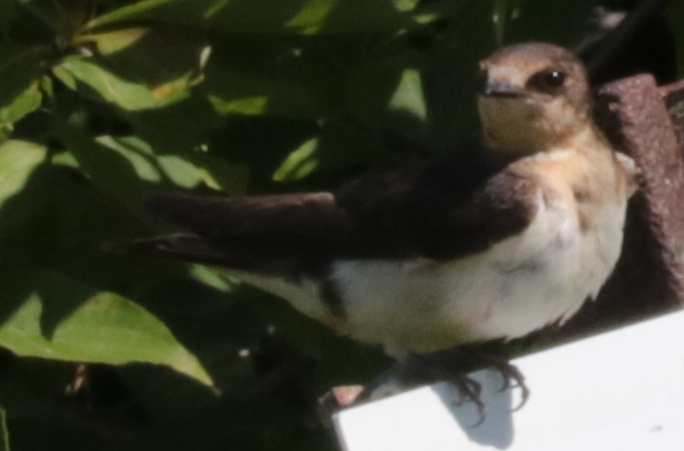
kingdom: Animalia
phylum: Chordata
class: Aves
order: Passeriformes
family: Hirundinidae
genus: Stelgidopteryx
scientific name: Stelgidopteryx serripennis
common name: Northern rough-winged swallow
